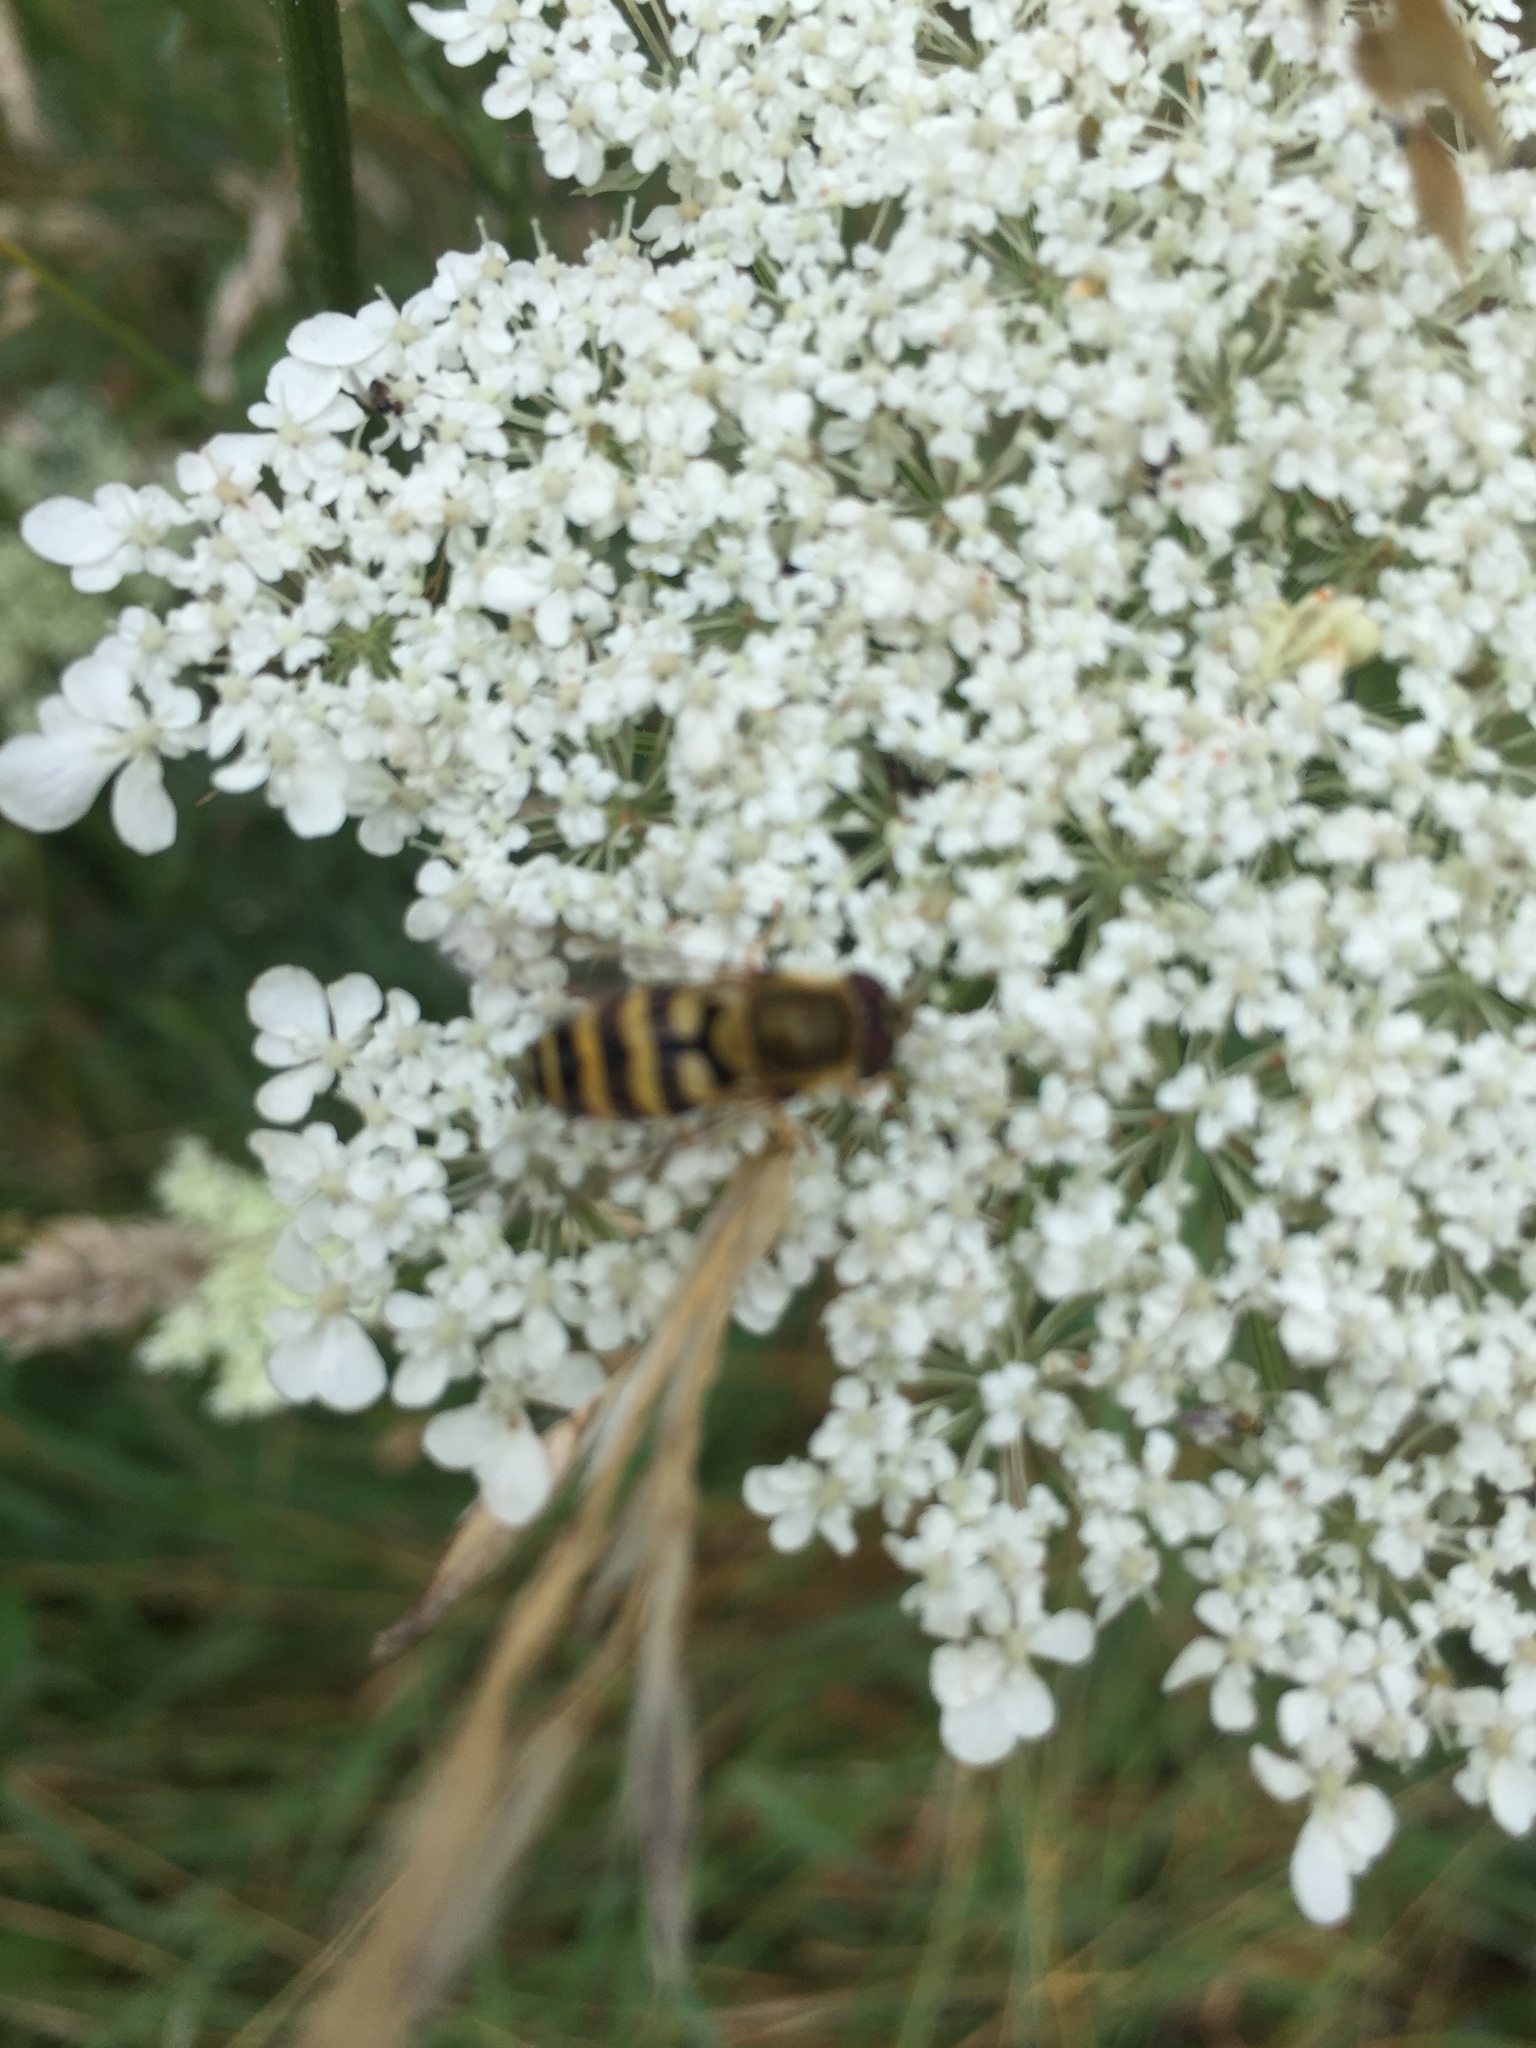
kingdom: Animalia
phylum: Arthropoda
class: Insecta
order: Diptera
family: Syrphidae
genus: Syrphus
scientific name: Syrphus
